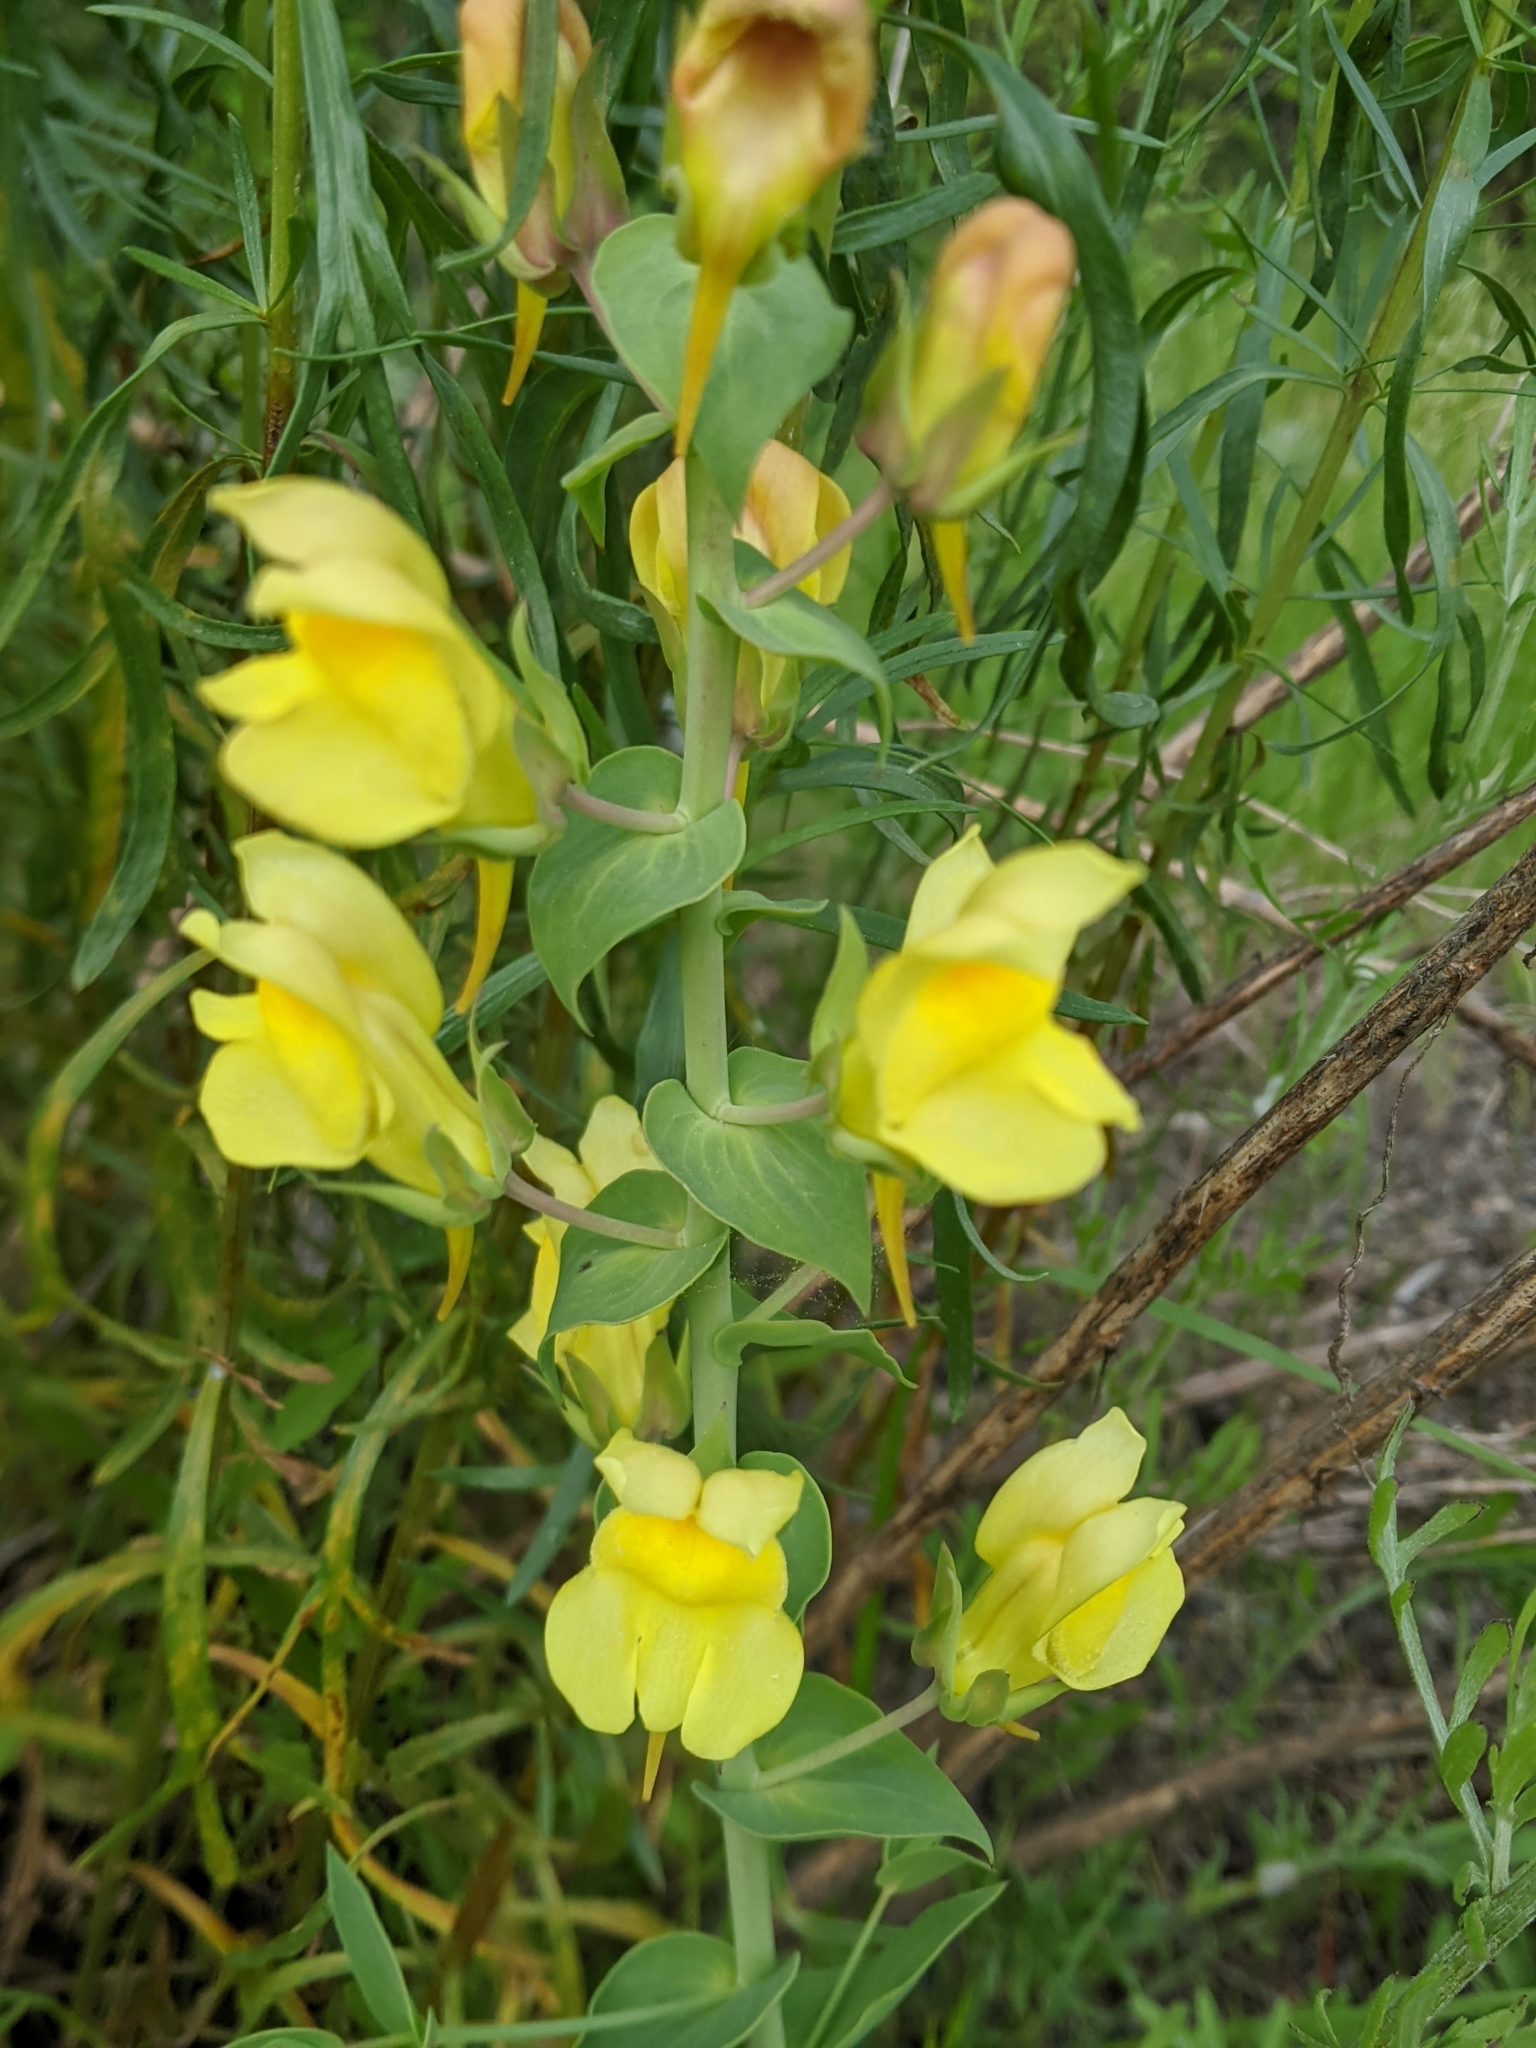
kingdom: Plantae
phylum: Tracheophyta
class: Magnoliopsida
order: Lamiales
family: Plantaginaceae
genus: Linaria
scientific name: Linaria dalmatica
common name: Dalmatian toadflax
